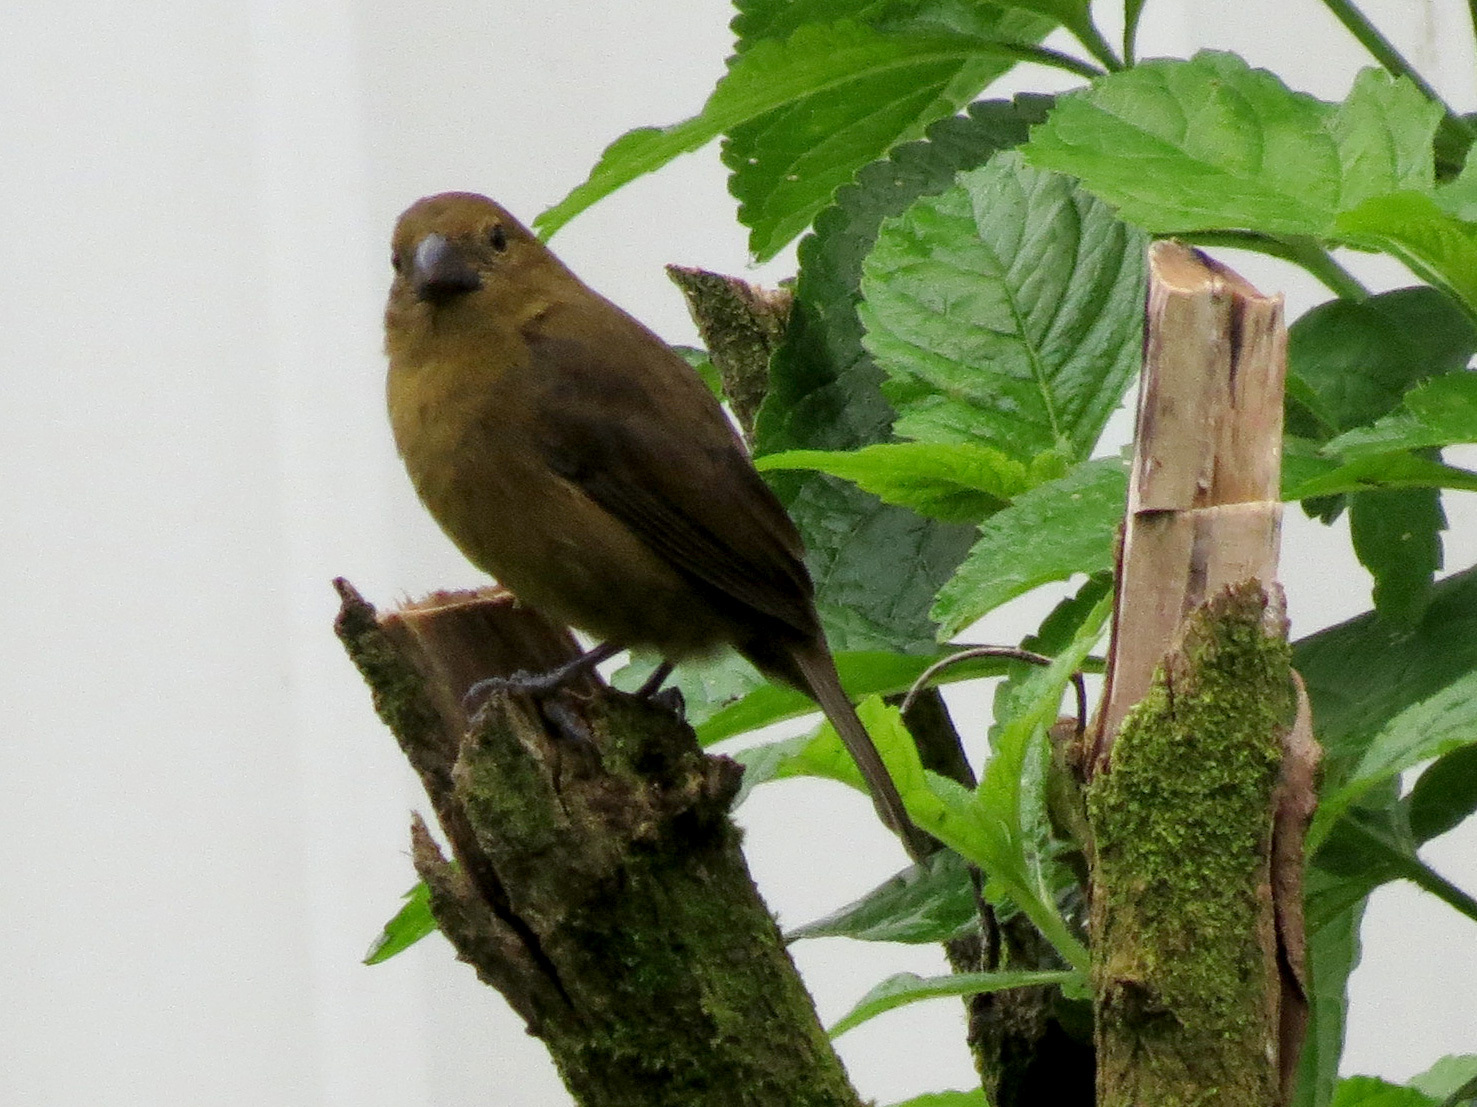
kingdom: Animalia
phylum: Chordata
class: Aves
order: Passeriformes
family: Thraupidae
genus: Sporophila
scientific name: Sporophila corvina
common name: Variable seedeater
